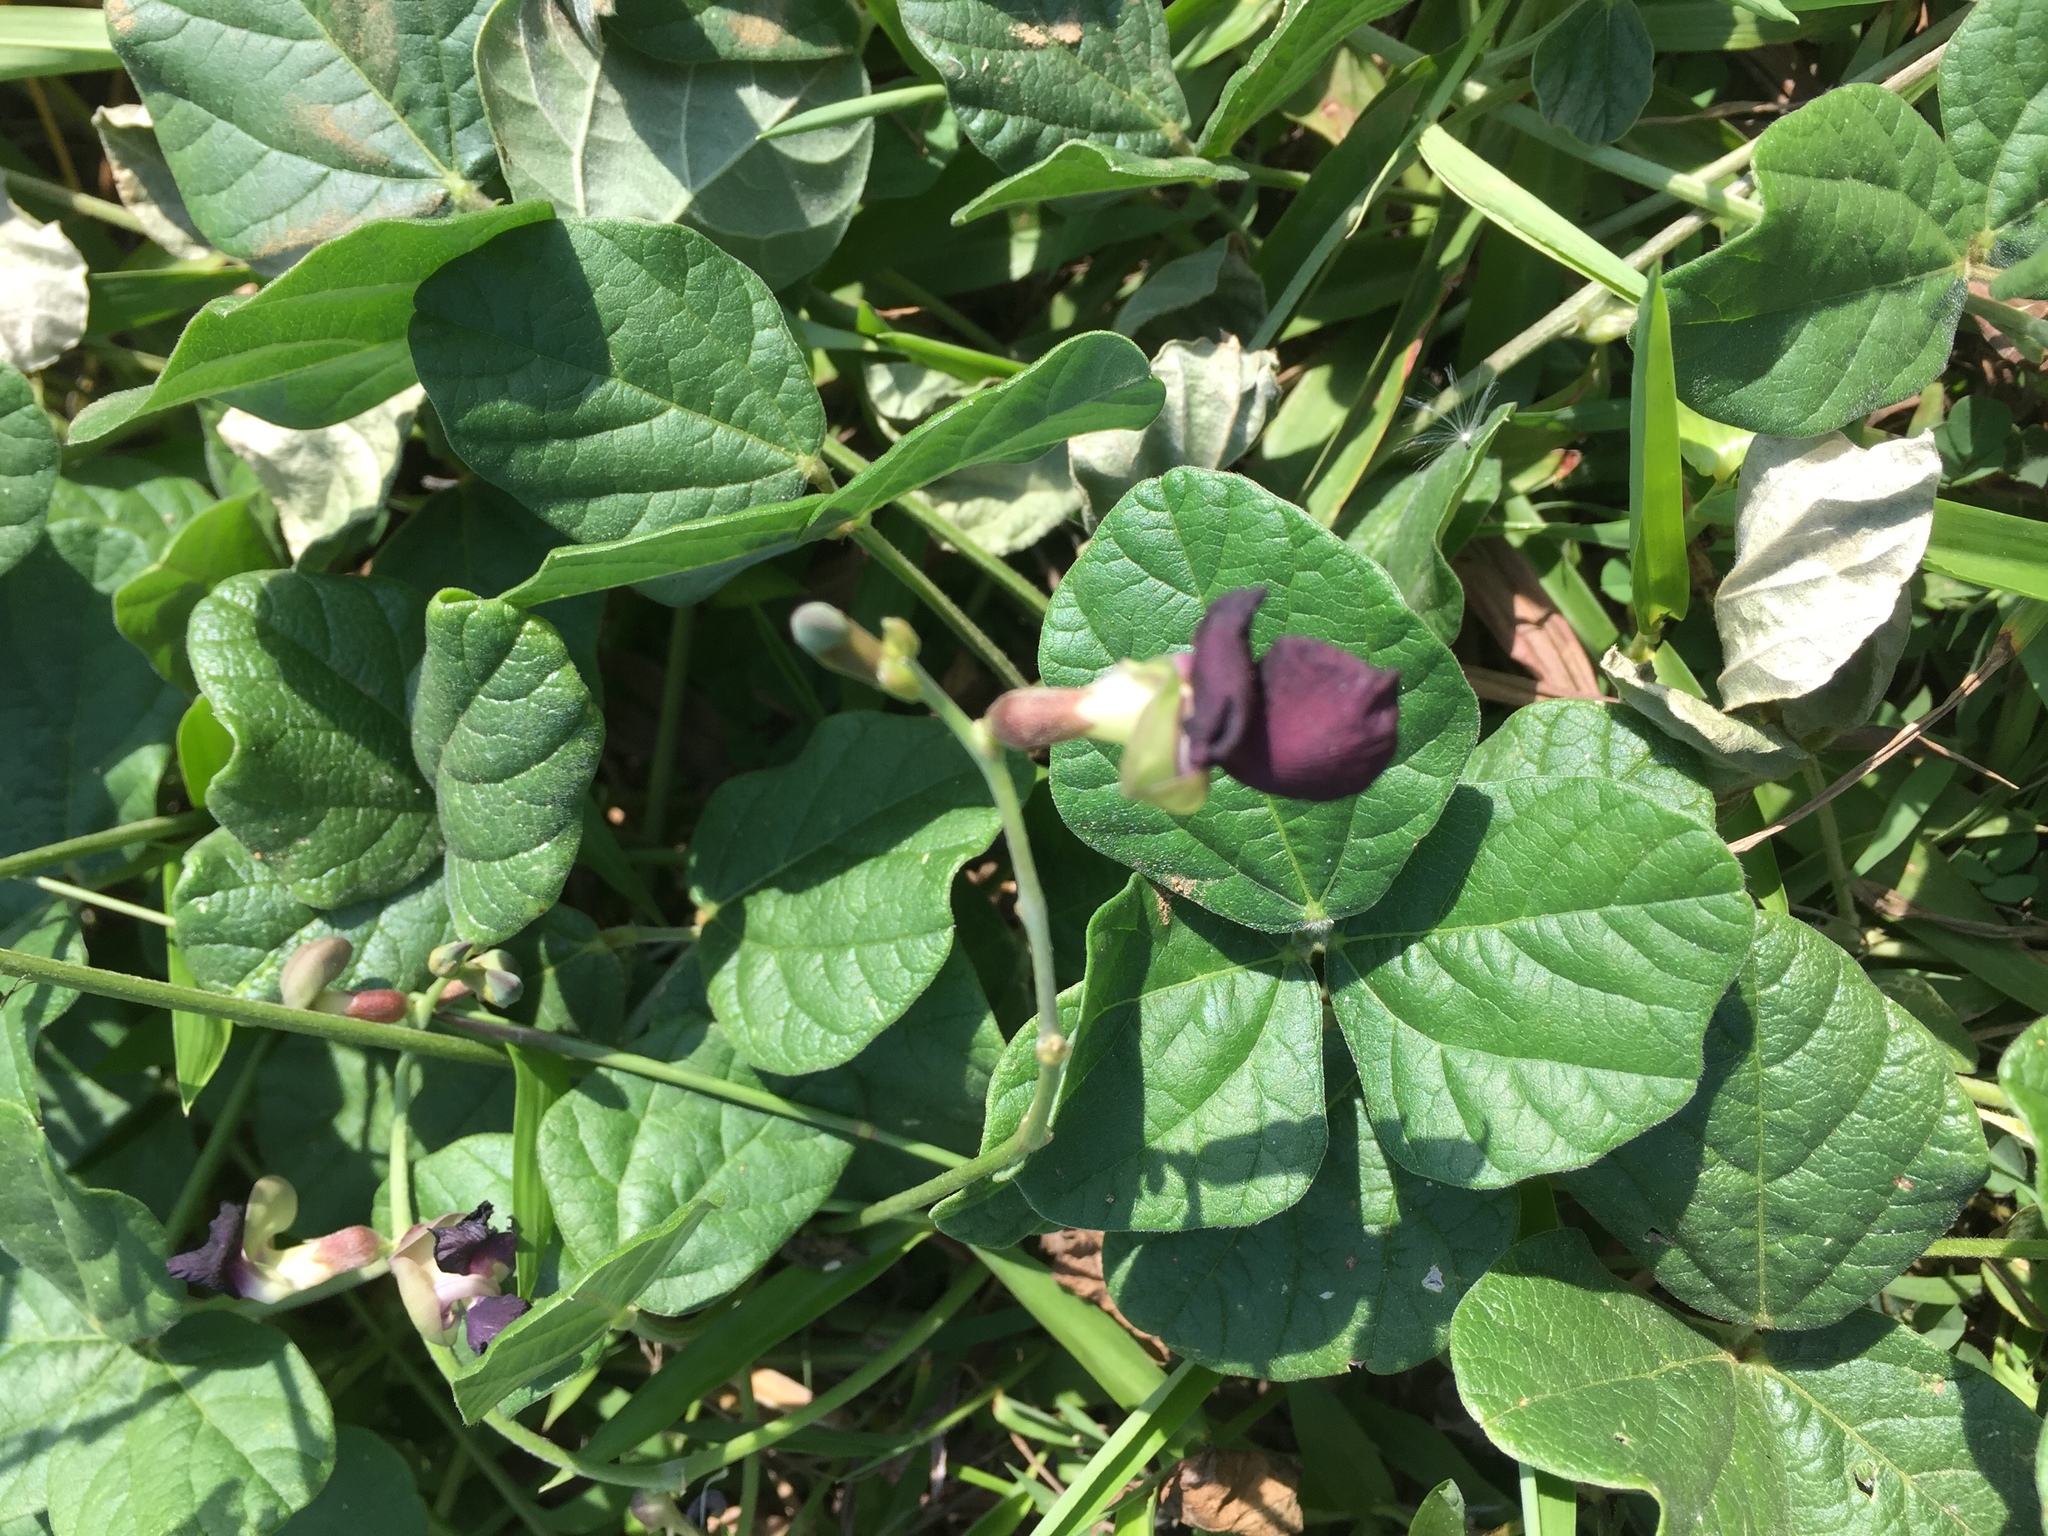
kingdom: Plantae
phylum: Tracheophyta
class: Magnoliopsida
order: Fabales
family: Fabaceae
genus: Macroptilium
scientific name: Macroptilium atropurpureum
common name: Purple bushbean
